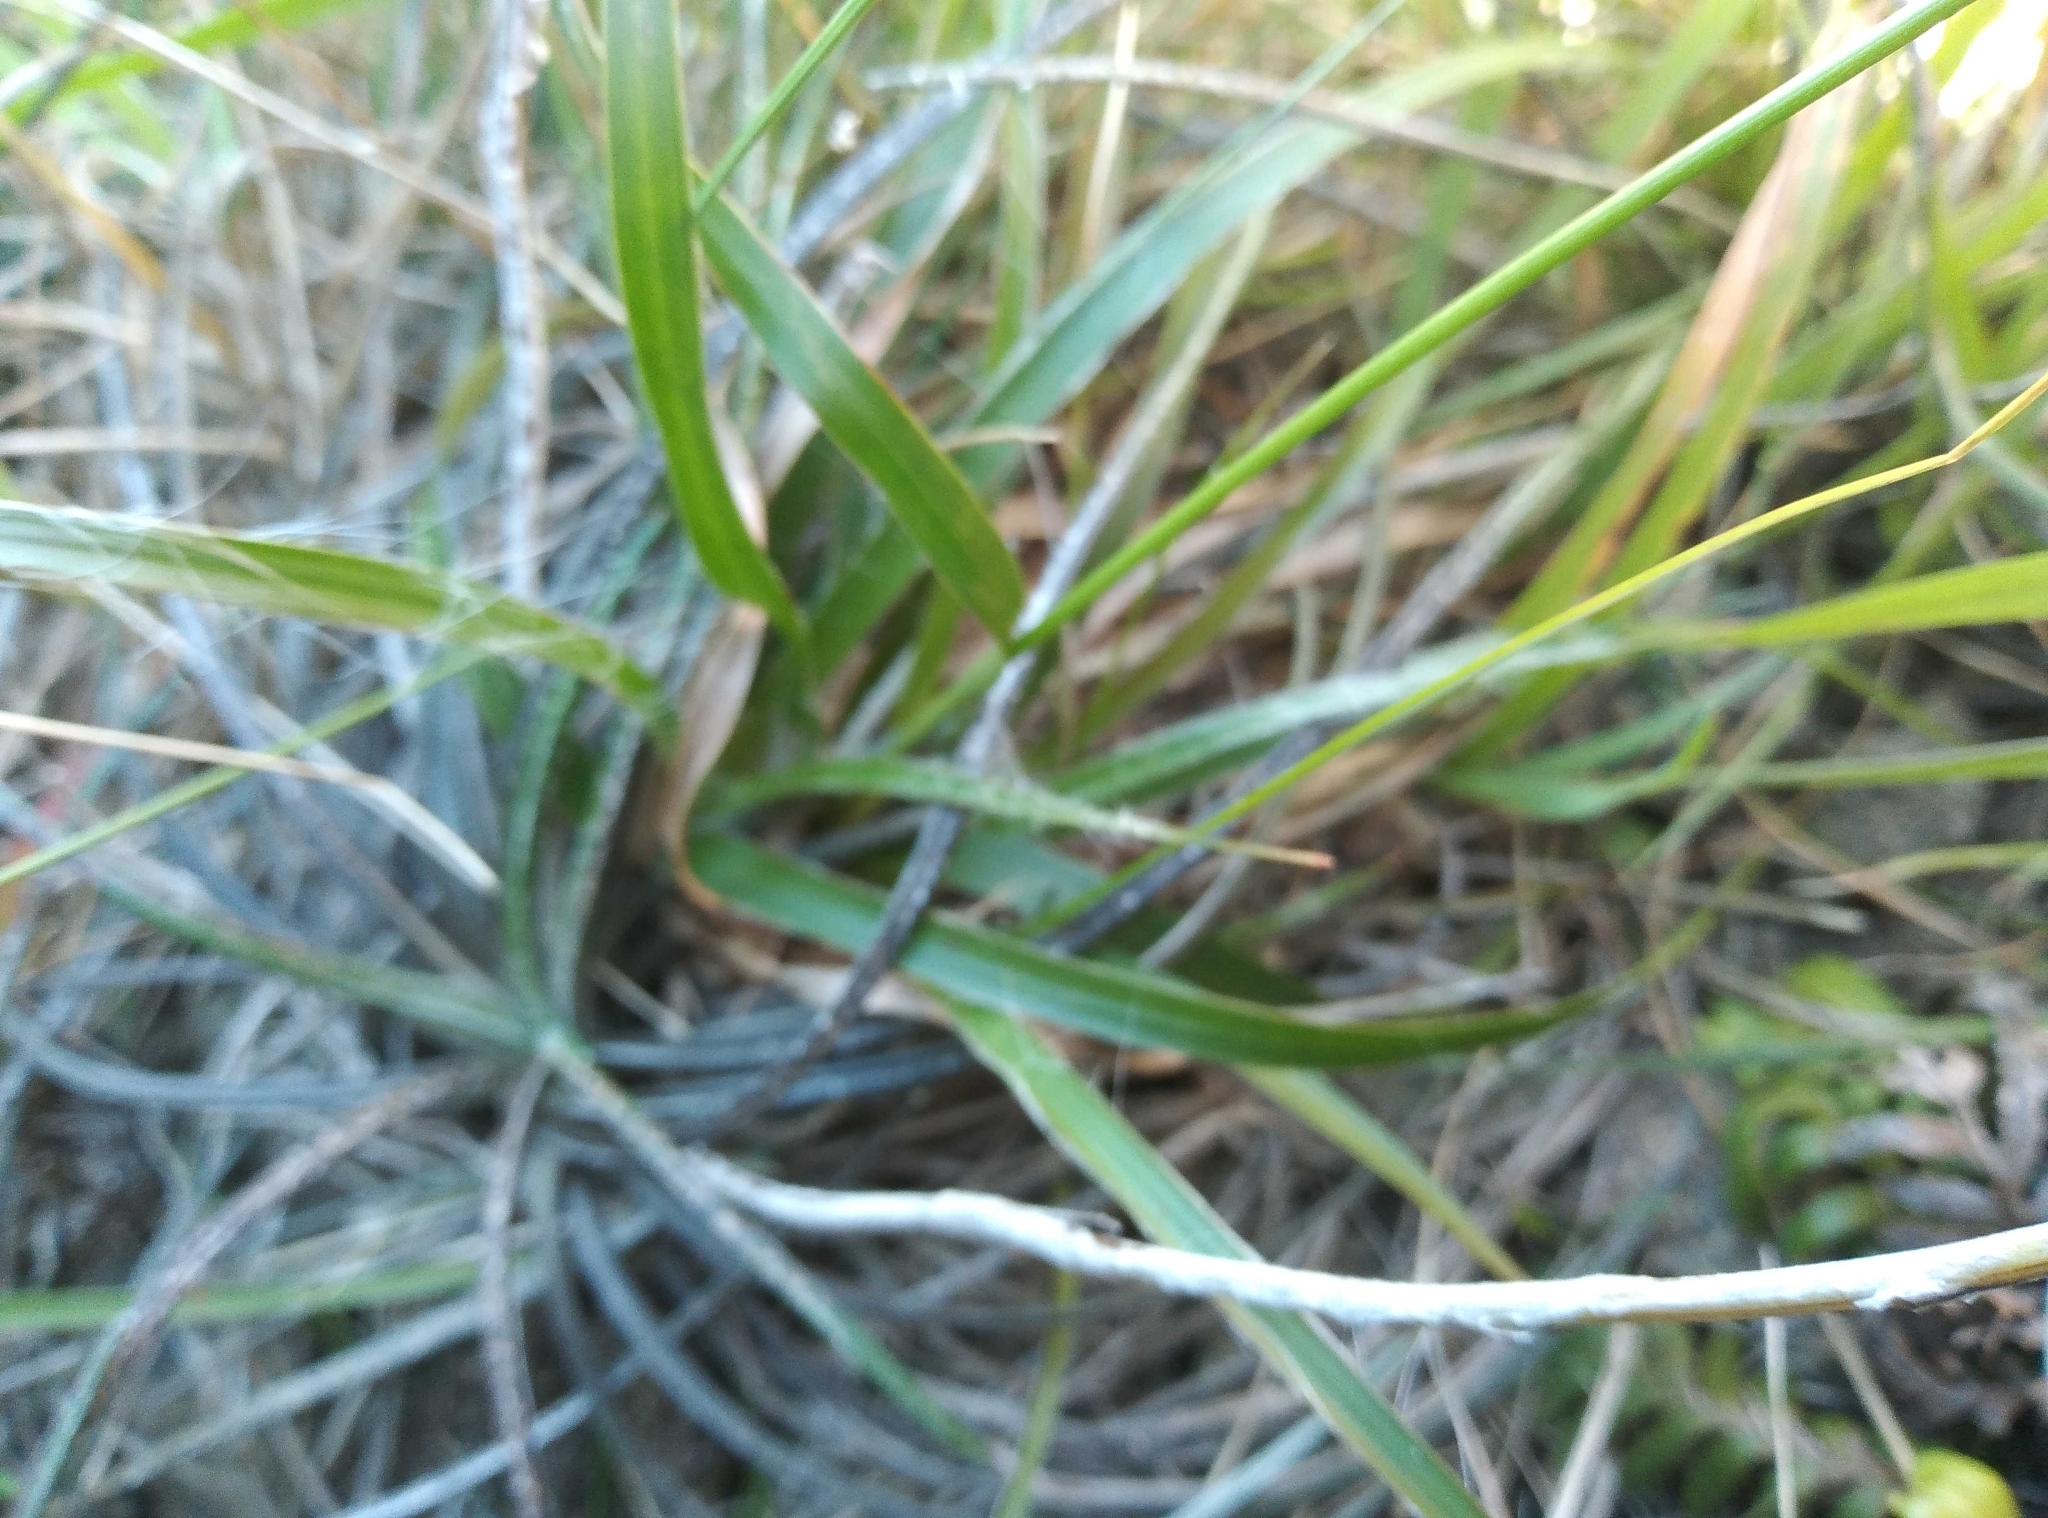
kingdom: Plantae
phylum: Tracheophyta
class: Magnoliopsida
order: Asterales
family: Asteraceae
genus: Celmisia
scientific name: Celmisia gracilenta
